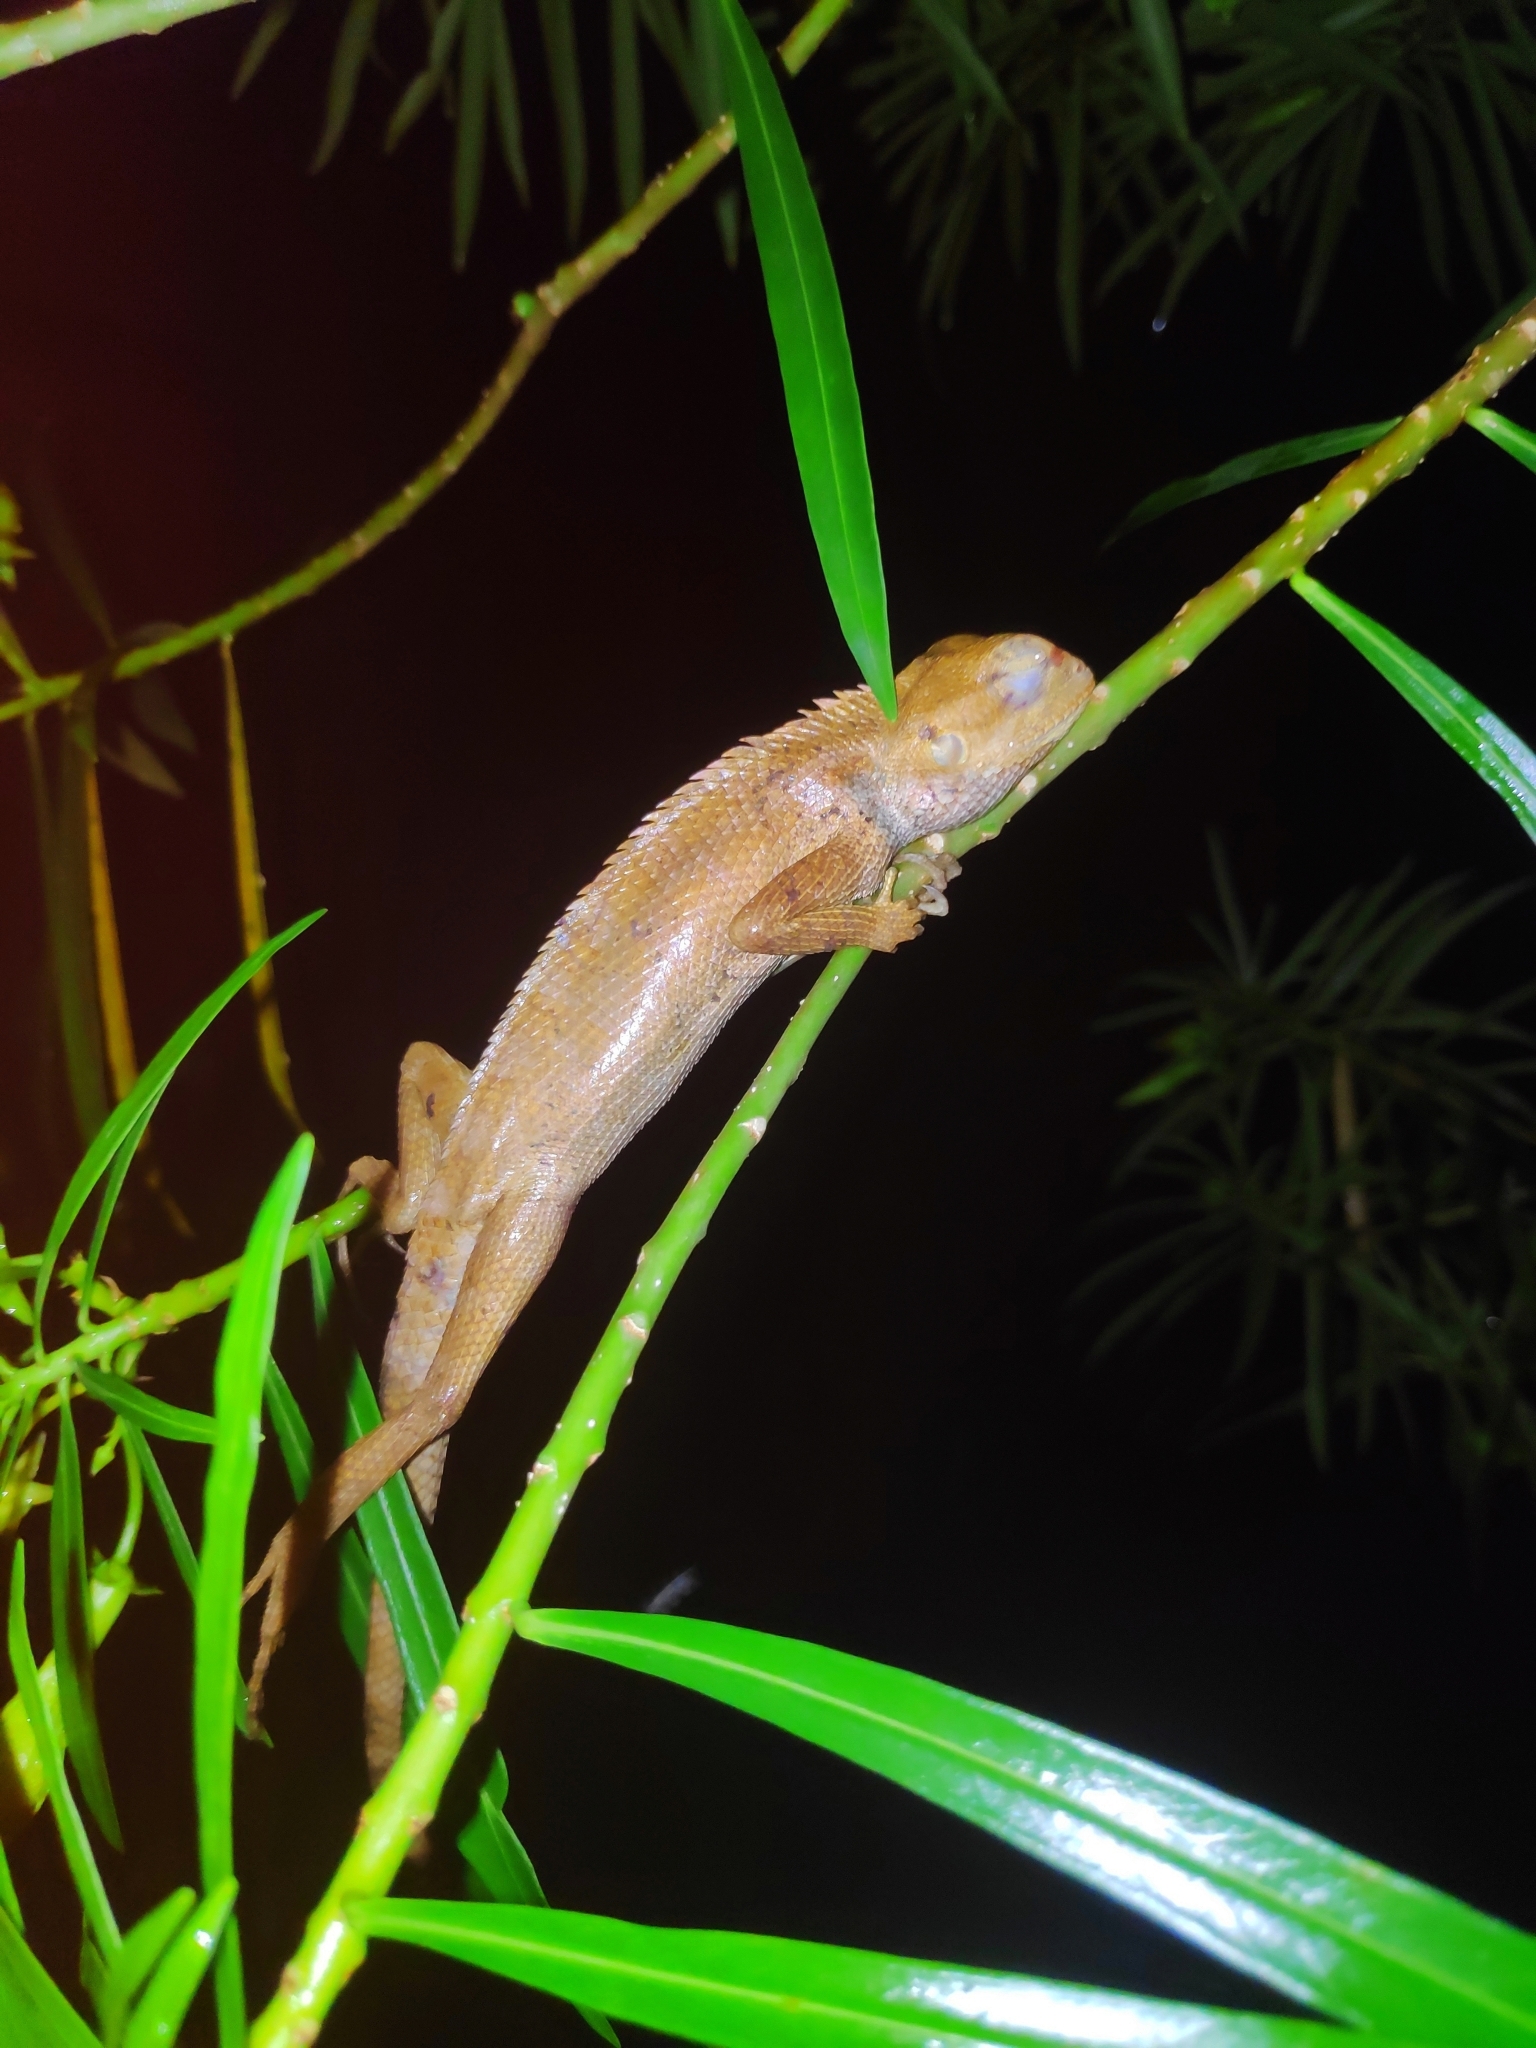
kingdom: Animalia
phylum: Chordata
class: Squamata
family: Agamidae
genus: Calotes
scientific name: Calotes versicolor
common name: Oriental garden lizard
